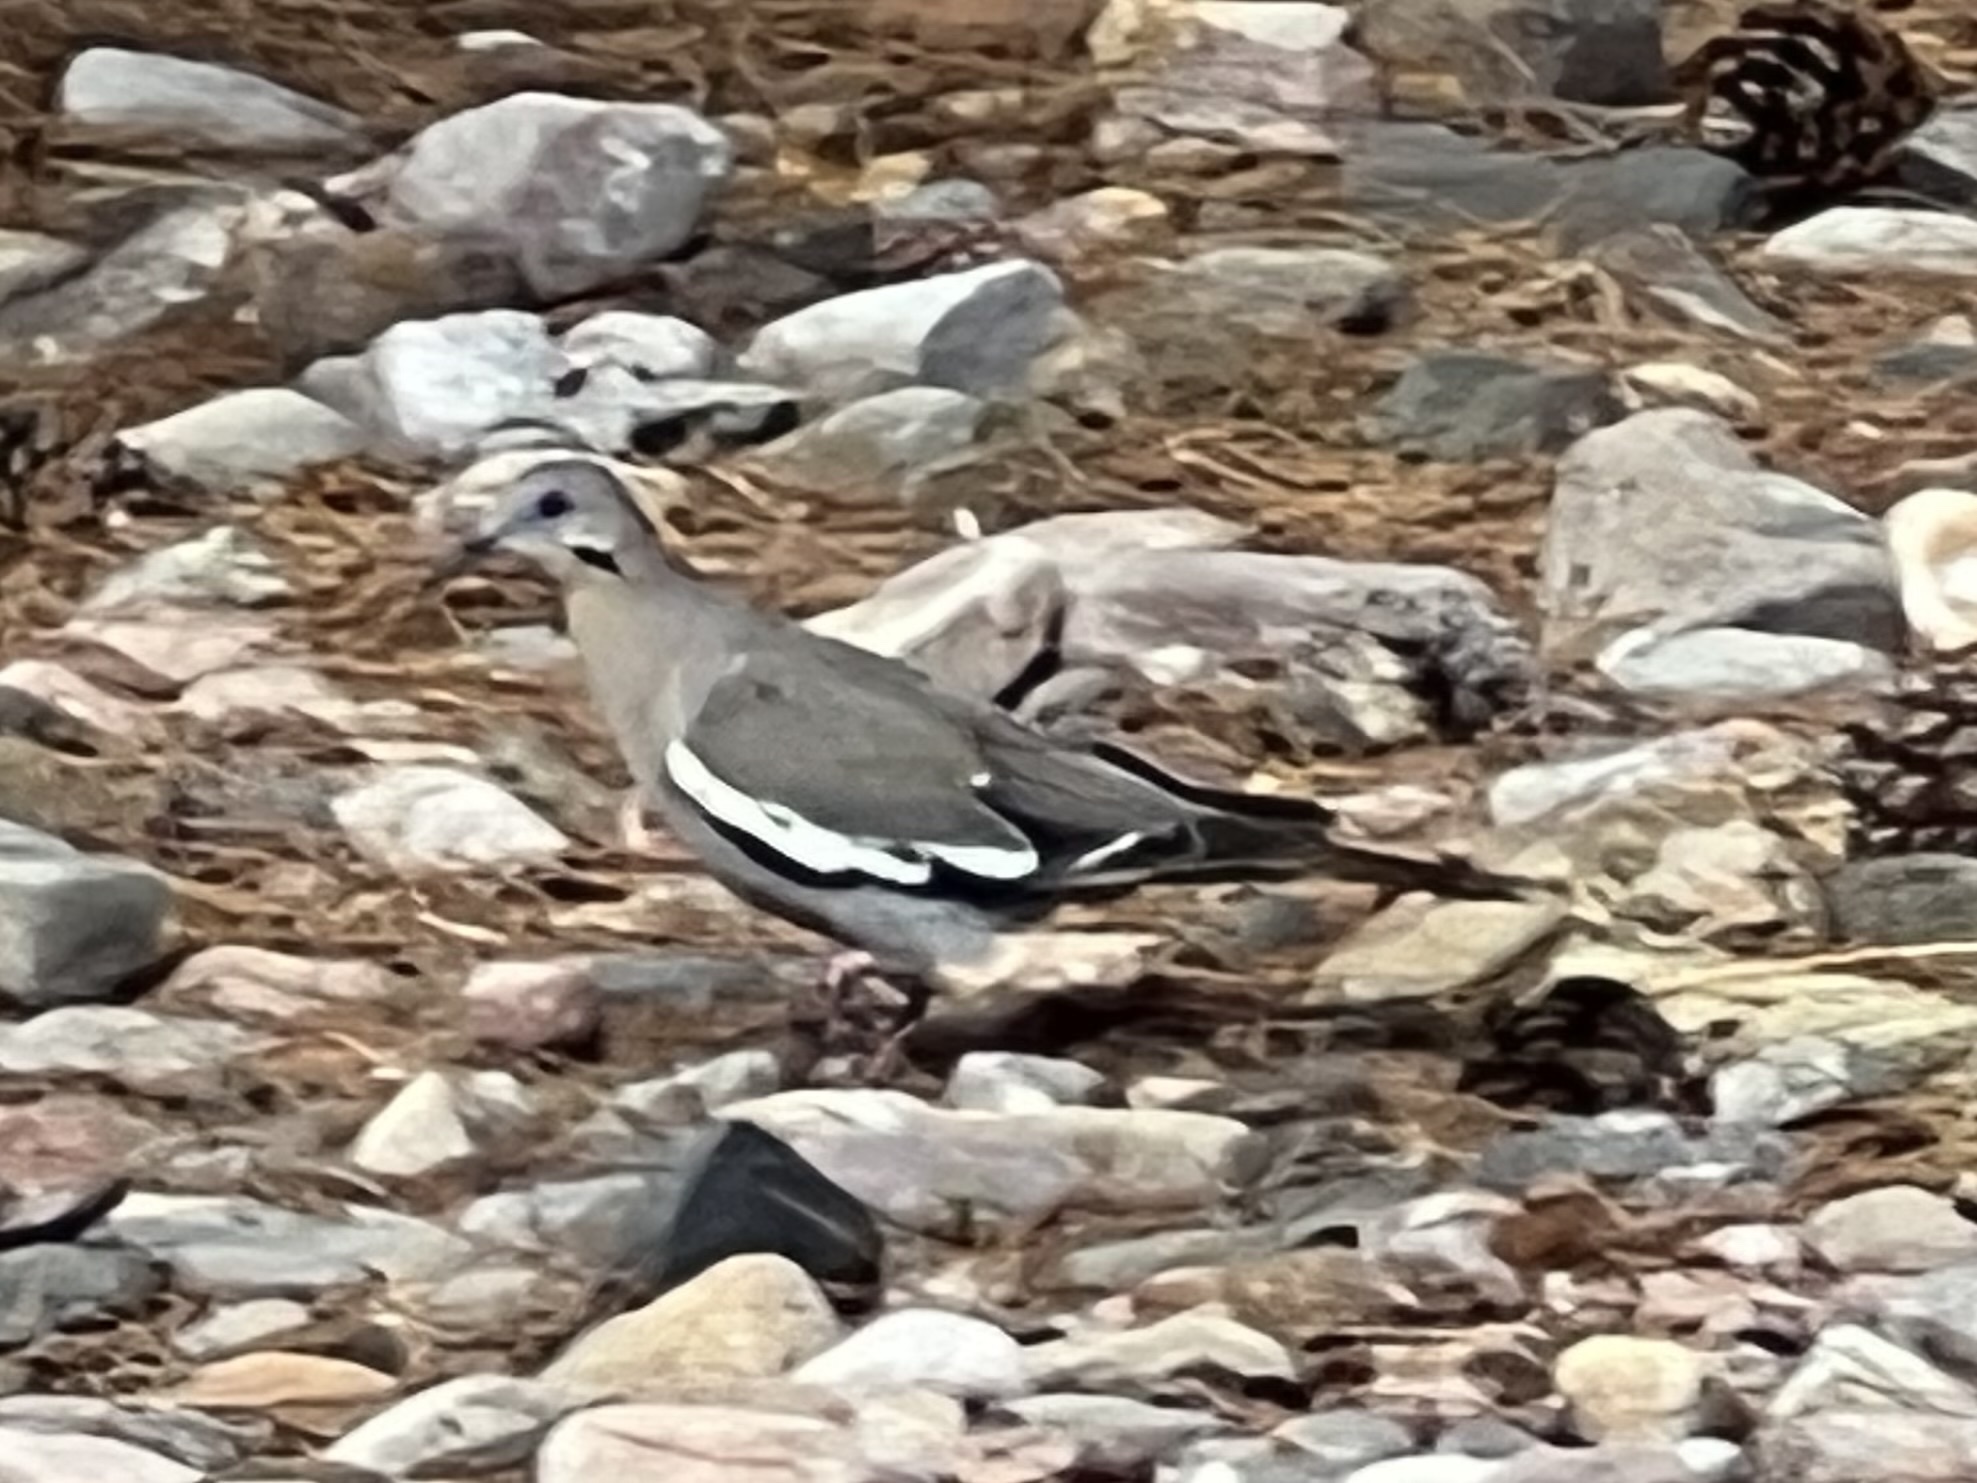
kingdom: Animalia
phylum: Chordata
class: Aves
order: Columbiformes
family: Columbidae
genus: Zenaida
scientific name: Zenaida asiatica
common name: White-winged dove
